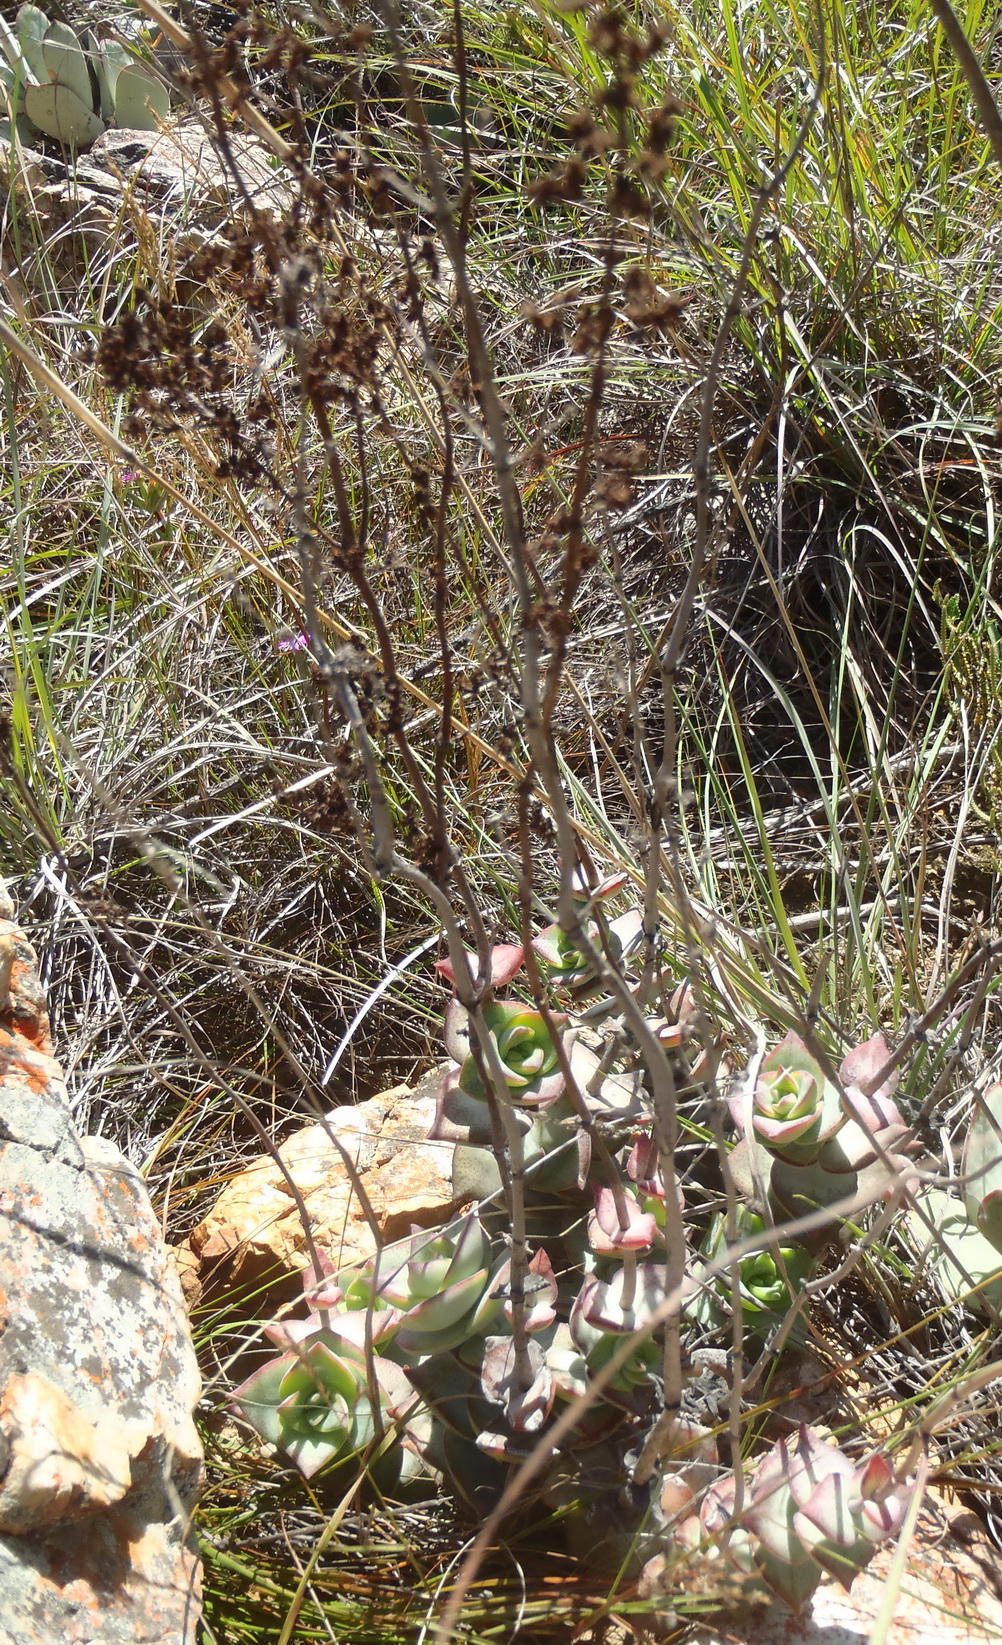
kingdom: Plantae
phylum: Tracheophyta
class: Magnoliopsida
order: Saxifragales
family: Crassulaceae
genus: Crassula
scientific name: Crassula perforata
